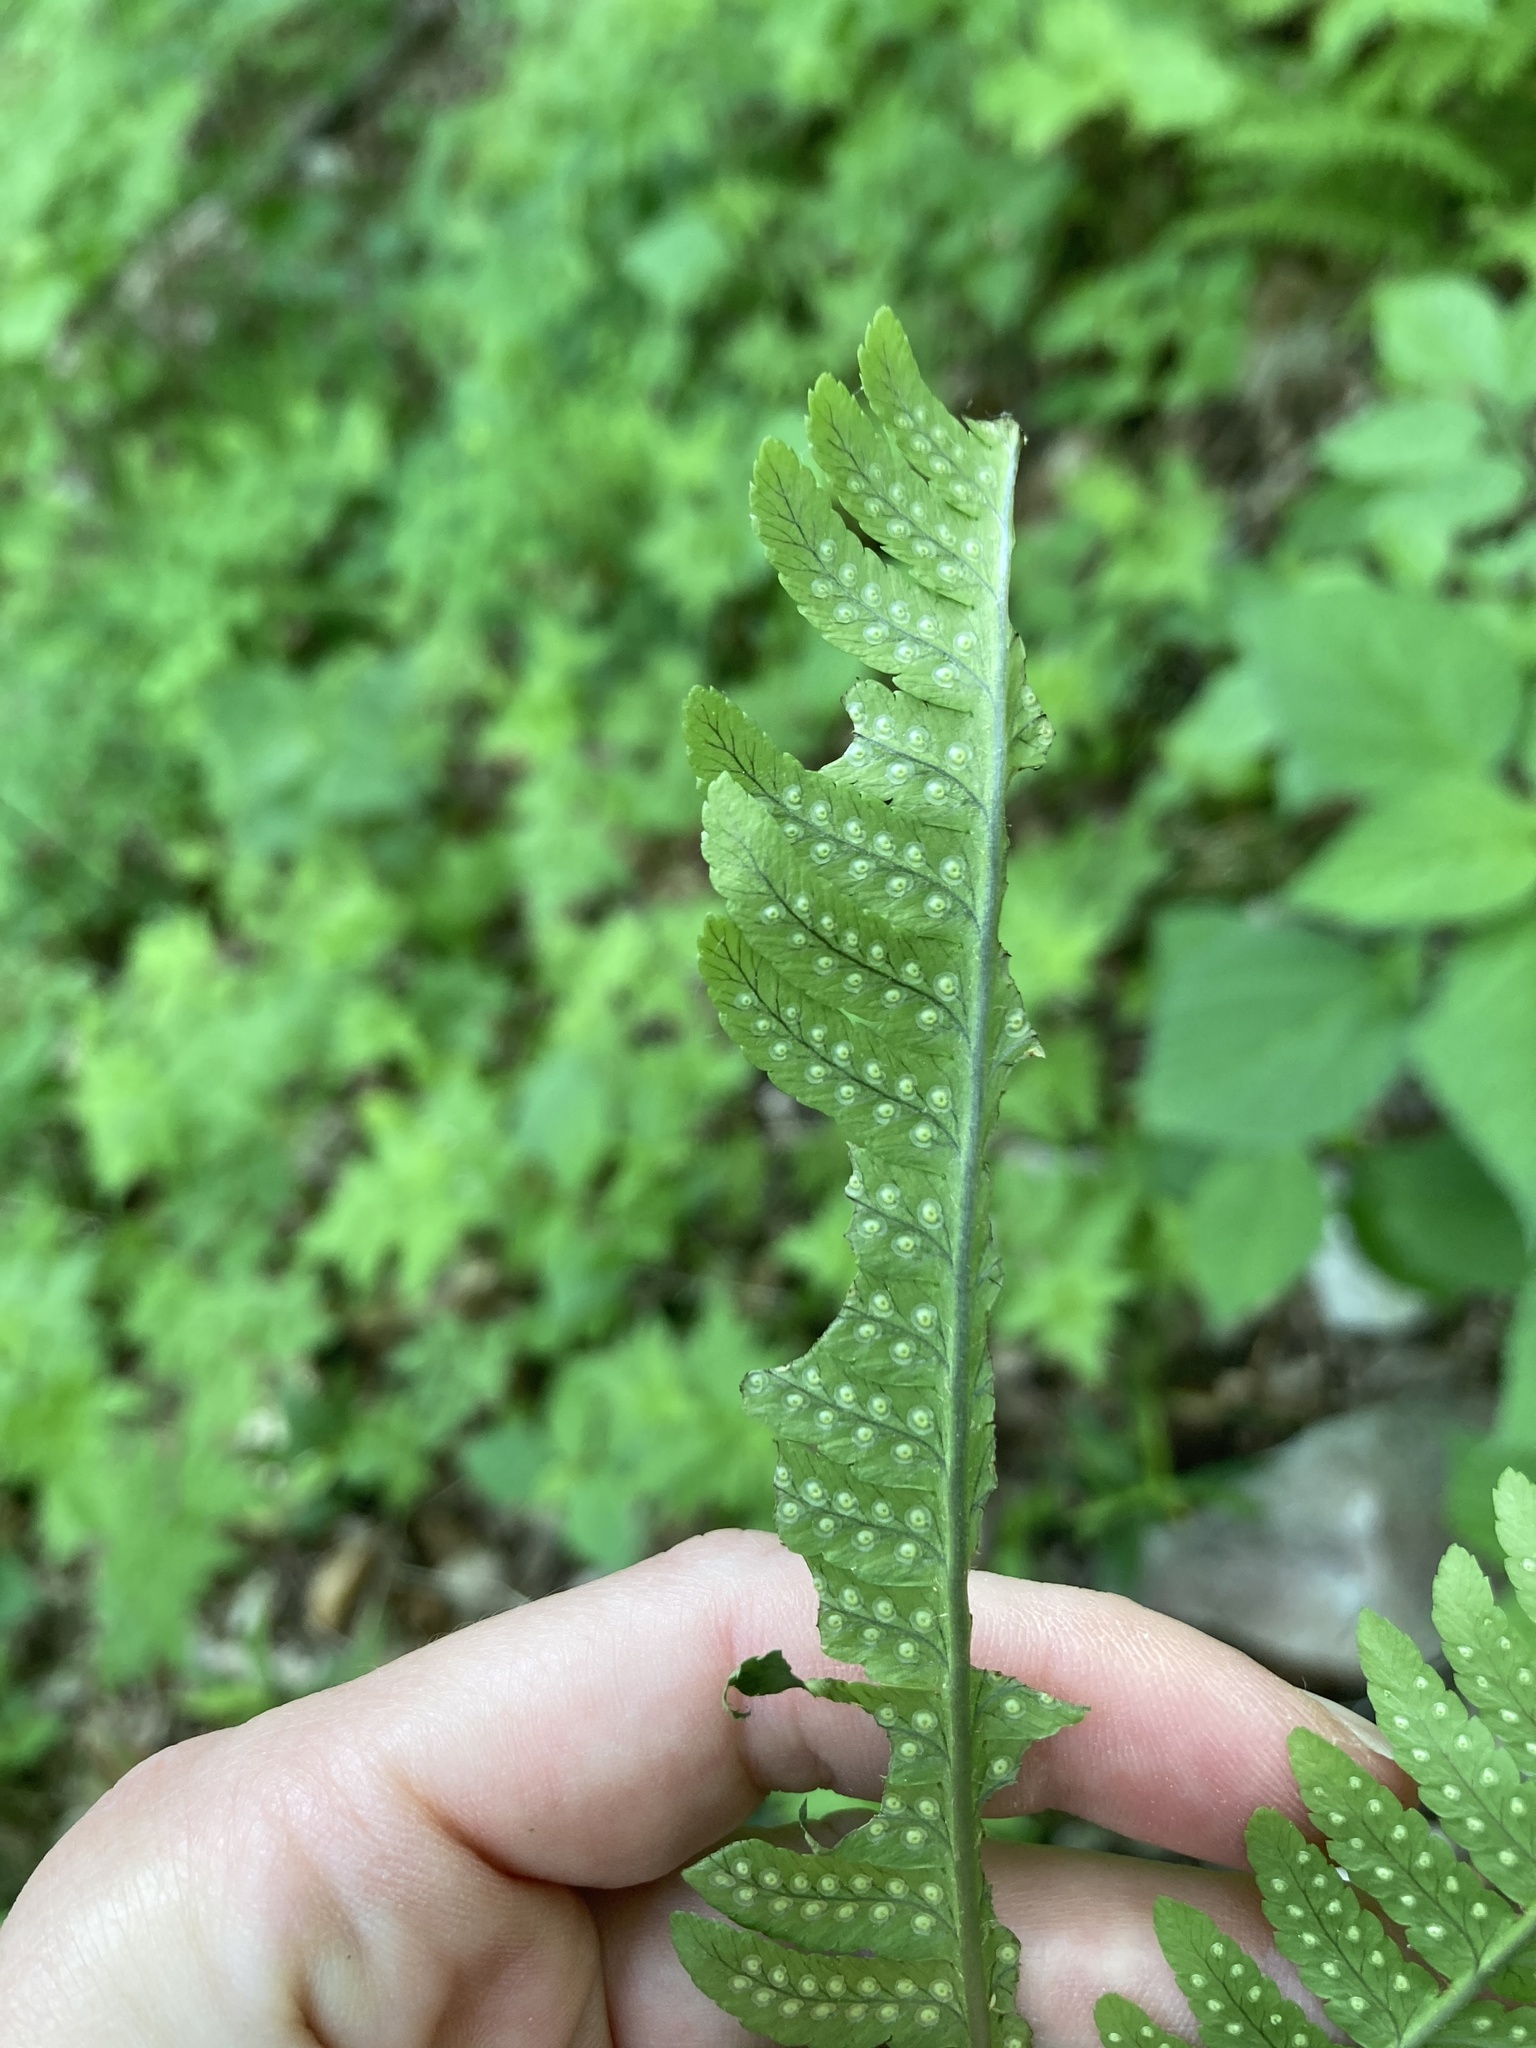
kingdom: Plantae
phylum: Tracheophyta
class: Polypodiopsida
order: Polypodiales
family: Dryopteridaceae
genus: Dryopteris
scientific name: Dryopteris goldieana
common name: Goldie's fern
